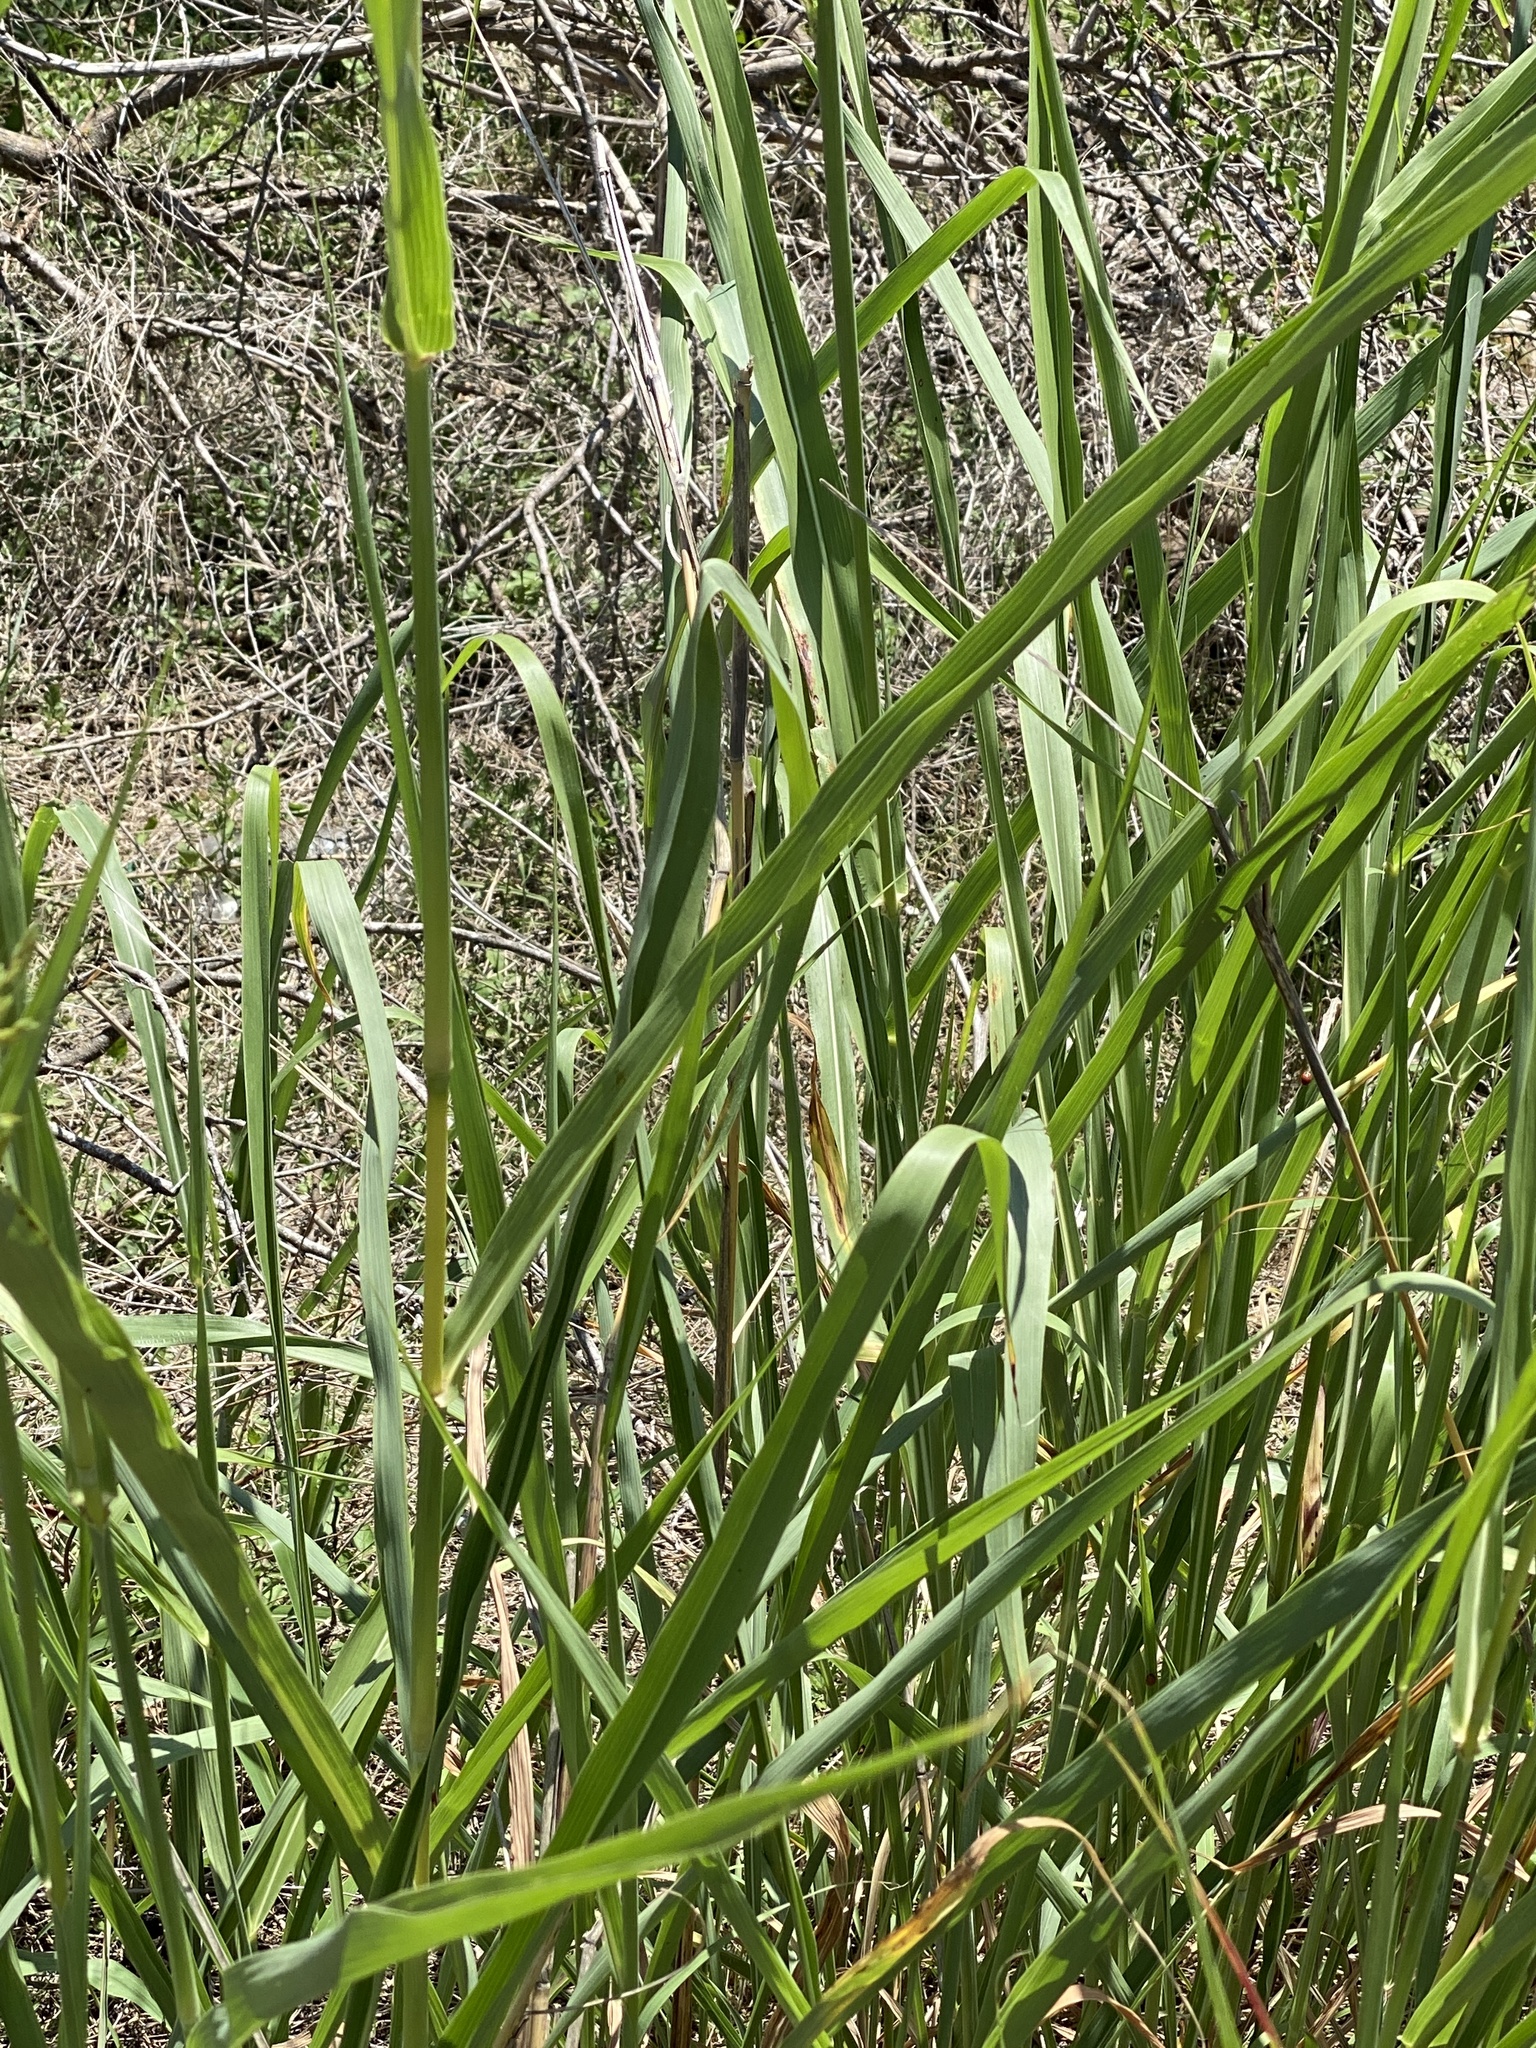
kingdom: Plantae
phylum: Tracheophyta
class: Liliopsida
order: Poales
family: Poaceae
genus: Sorghum
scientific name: Sorghum halepense
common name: Johnson-grass
